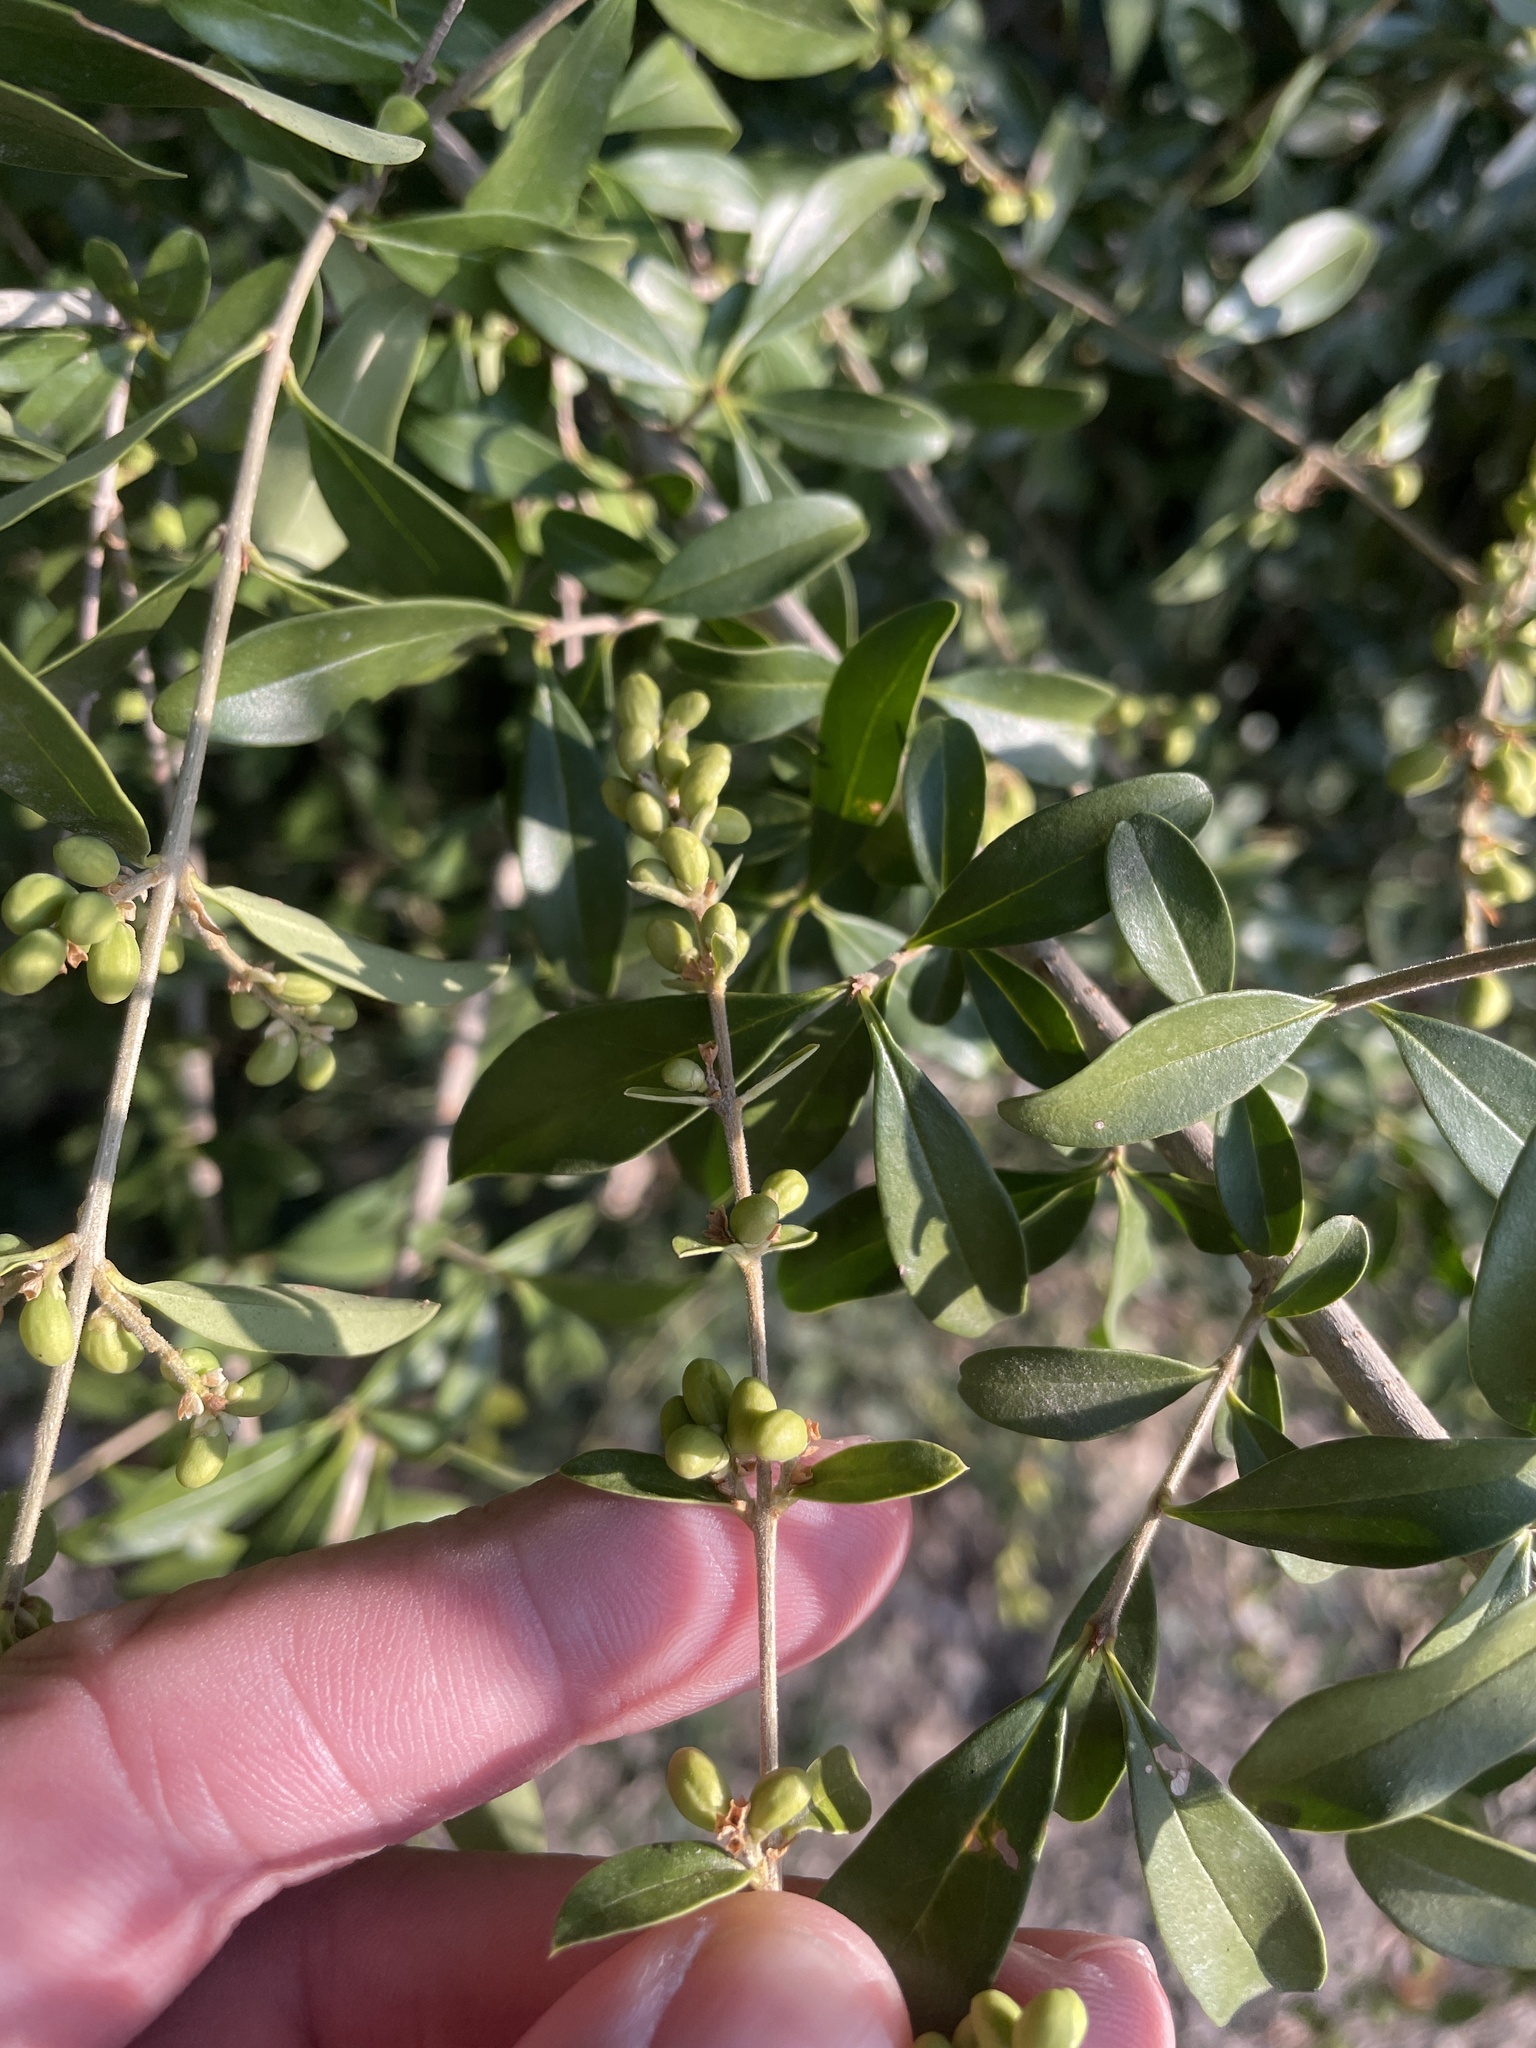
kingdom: Plantae
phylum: Tracheophyta
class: Magnoliopsida
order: Lamiales
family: Oleaceae
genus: Ligustrum
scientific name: Ligustrum quihoui
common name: Waxyleaf privet
